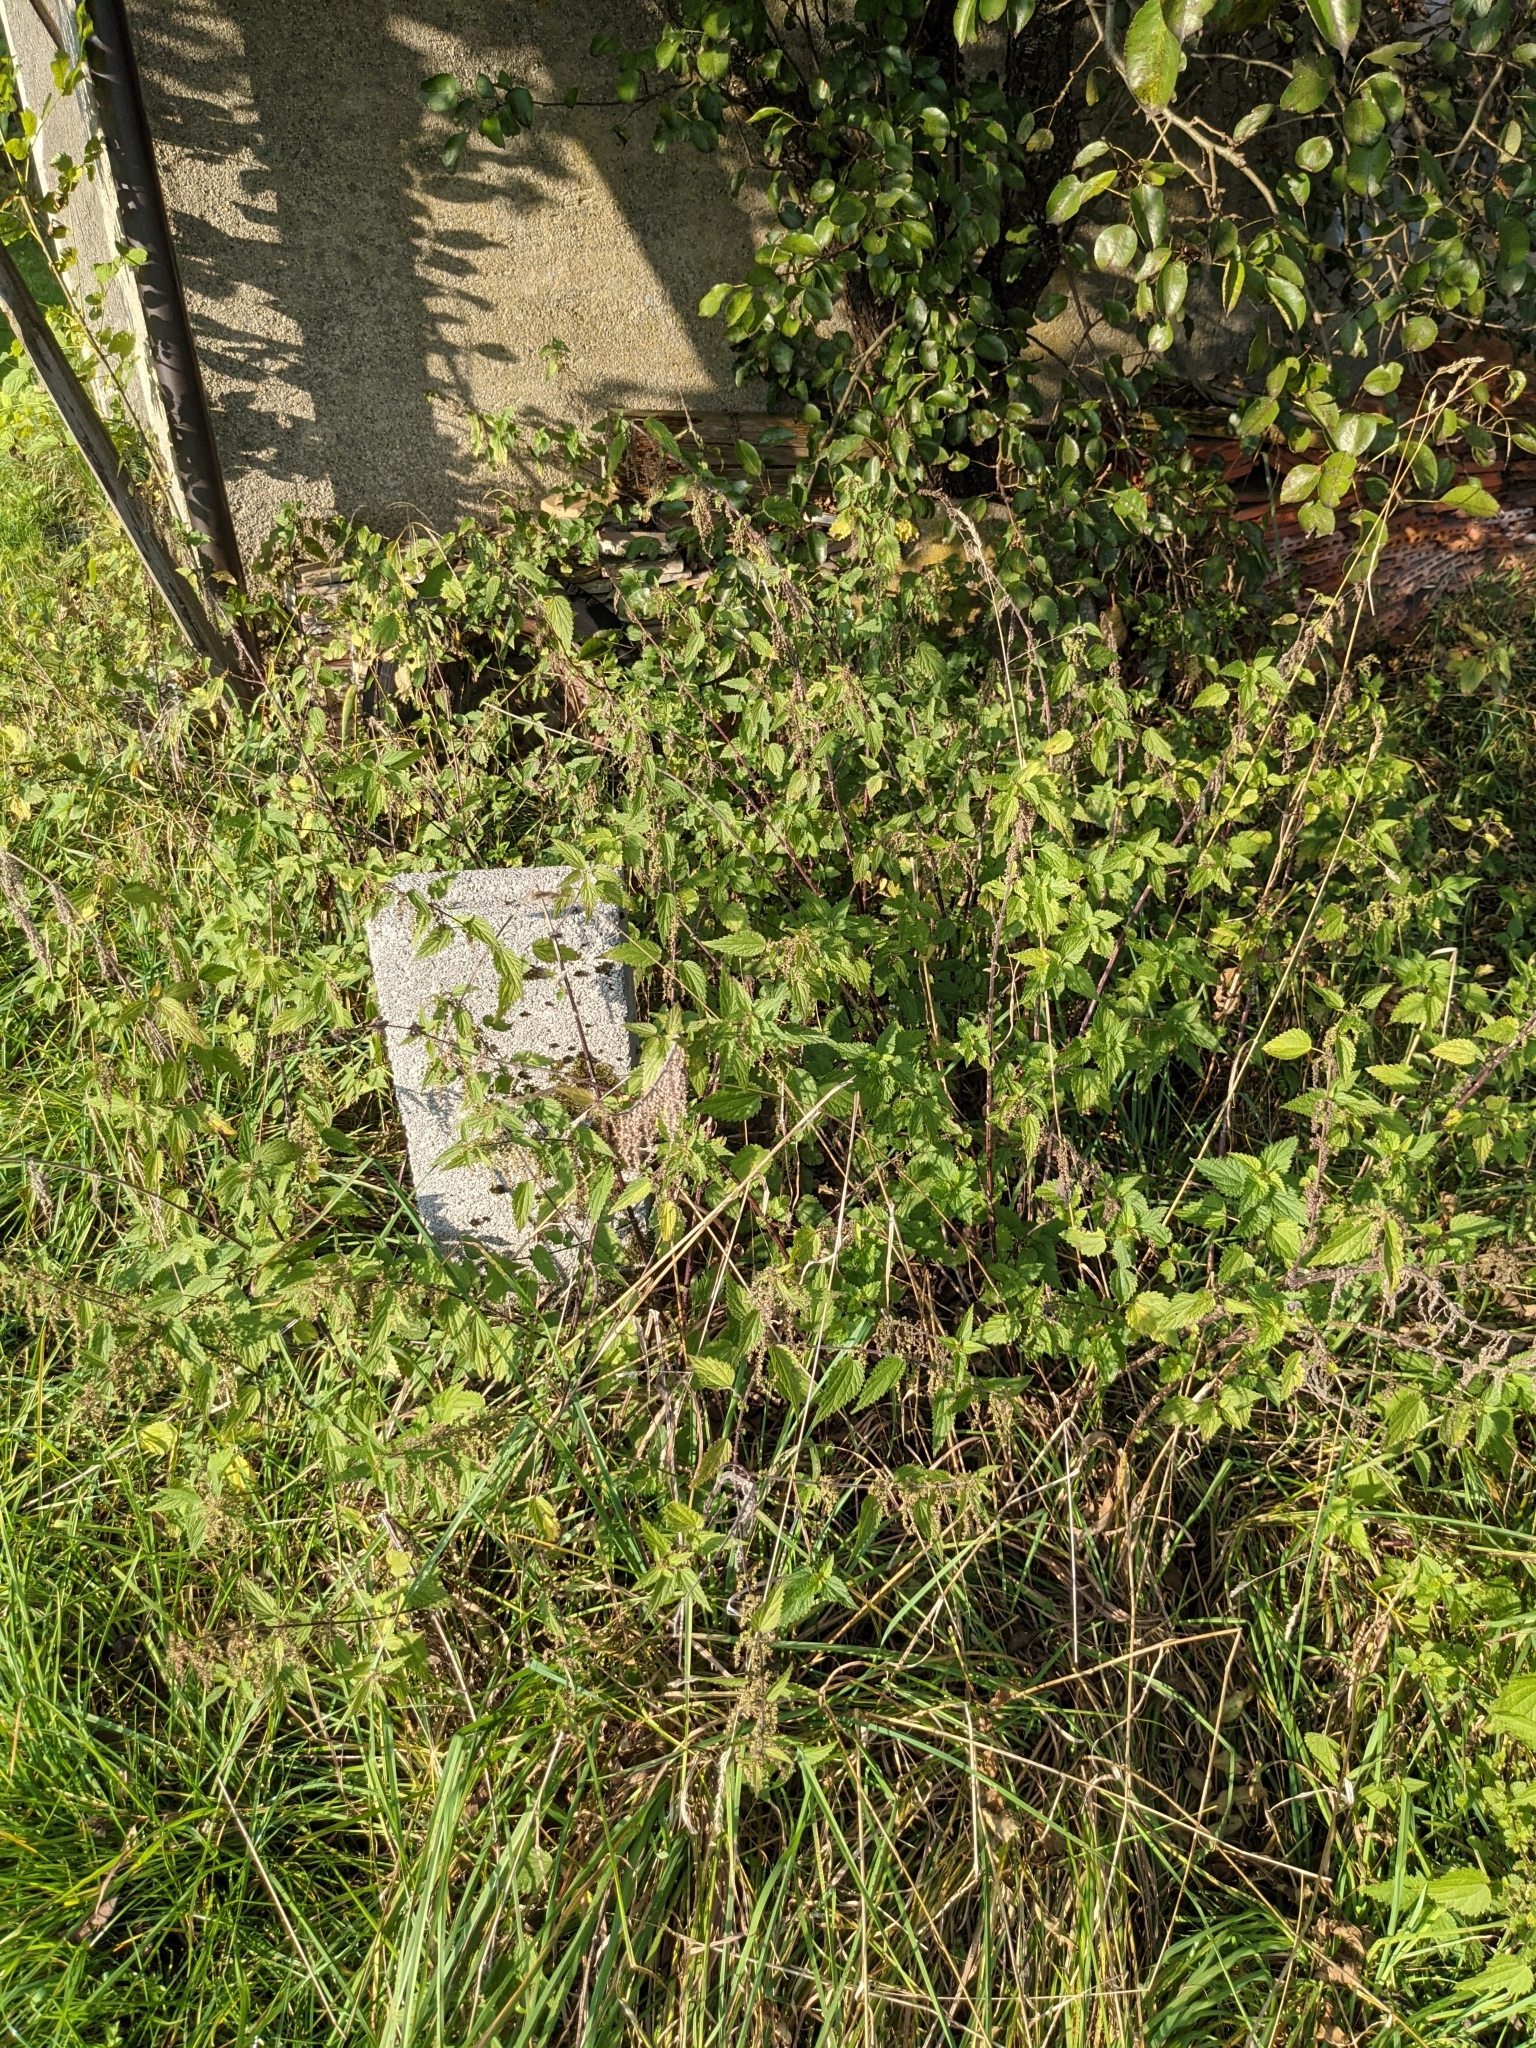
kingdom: Plantae
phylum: Tracheophyta
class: Magnoliopsida
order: Rosales
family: Urticaceae
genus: Urtica
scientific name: Urtica dioica
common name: Common nettle
